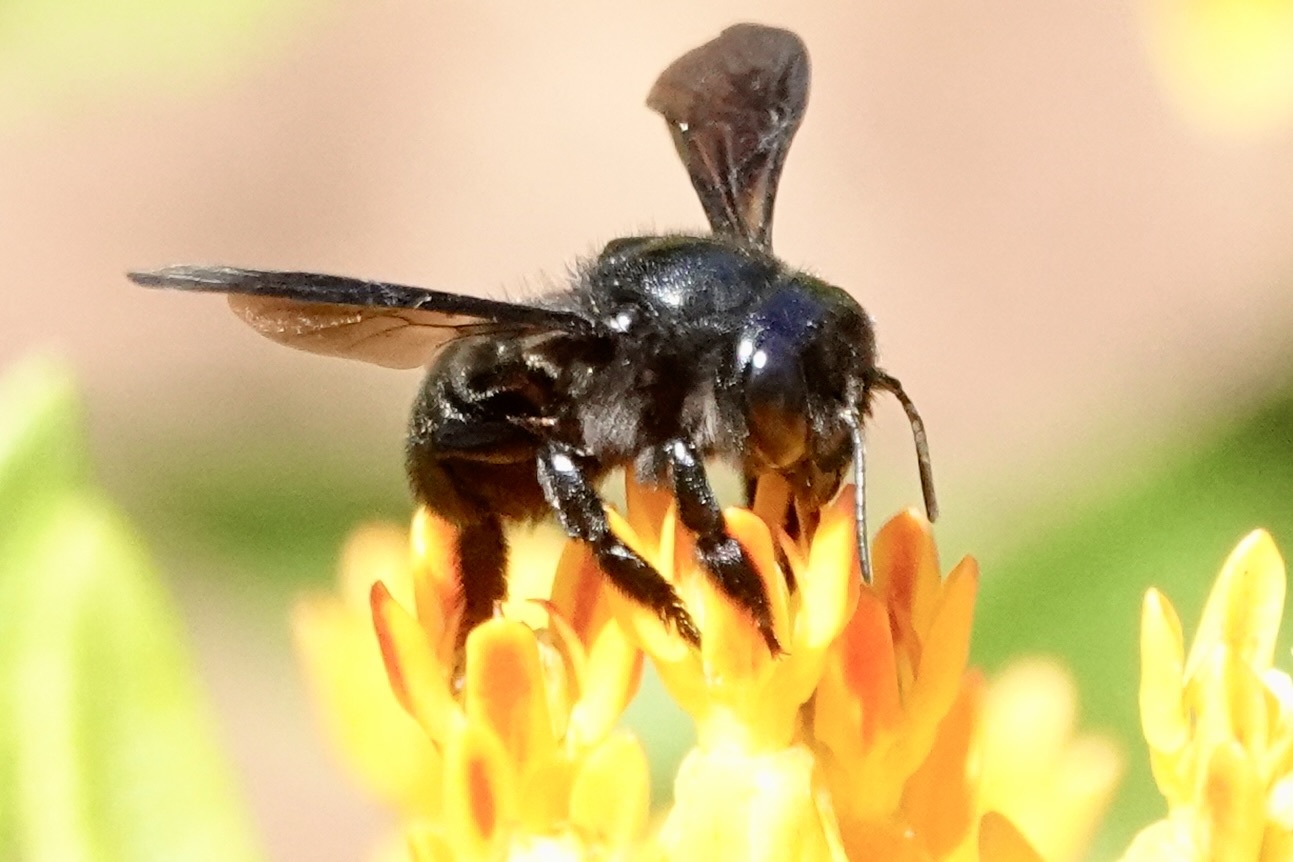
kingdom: Animalia
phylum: Arthropoda
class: Insecta
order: Hymenoptera
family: Megachilidae
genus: Megachile
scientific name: Megachile xylocopoides
